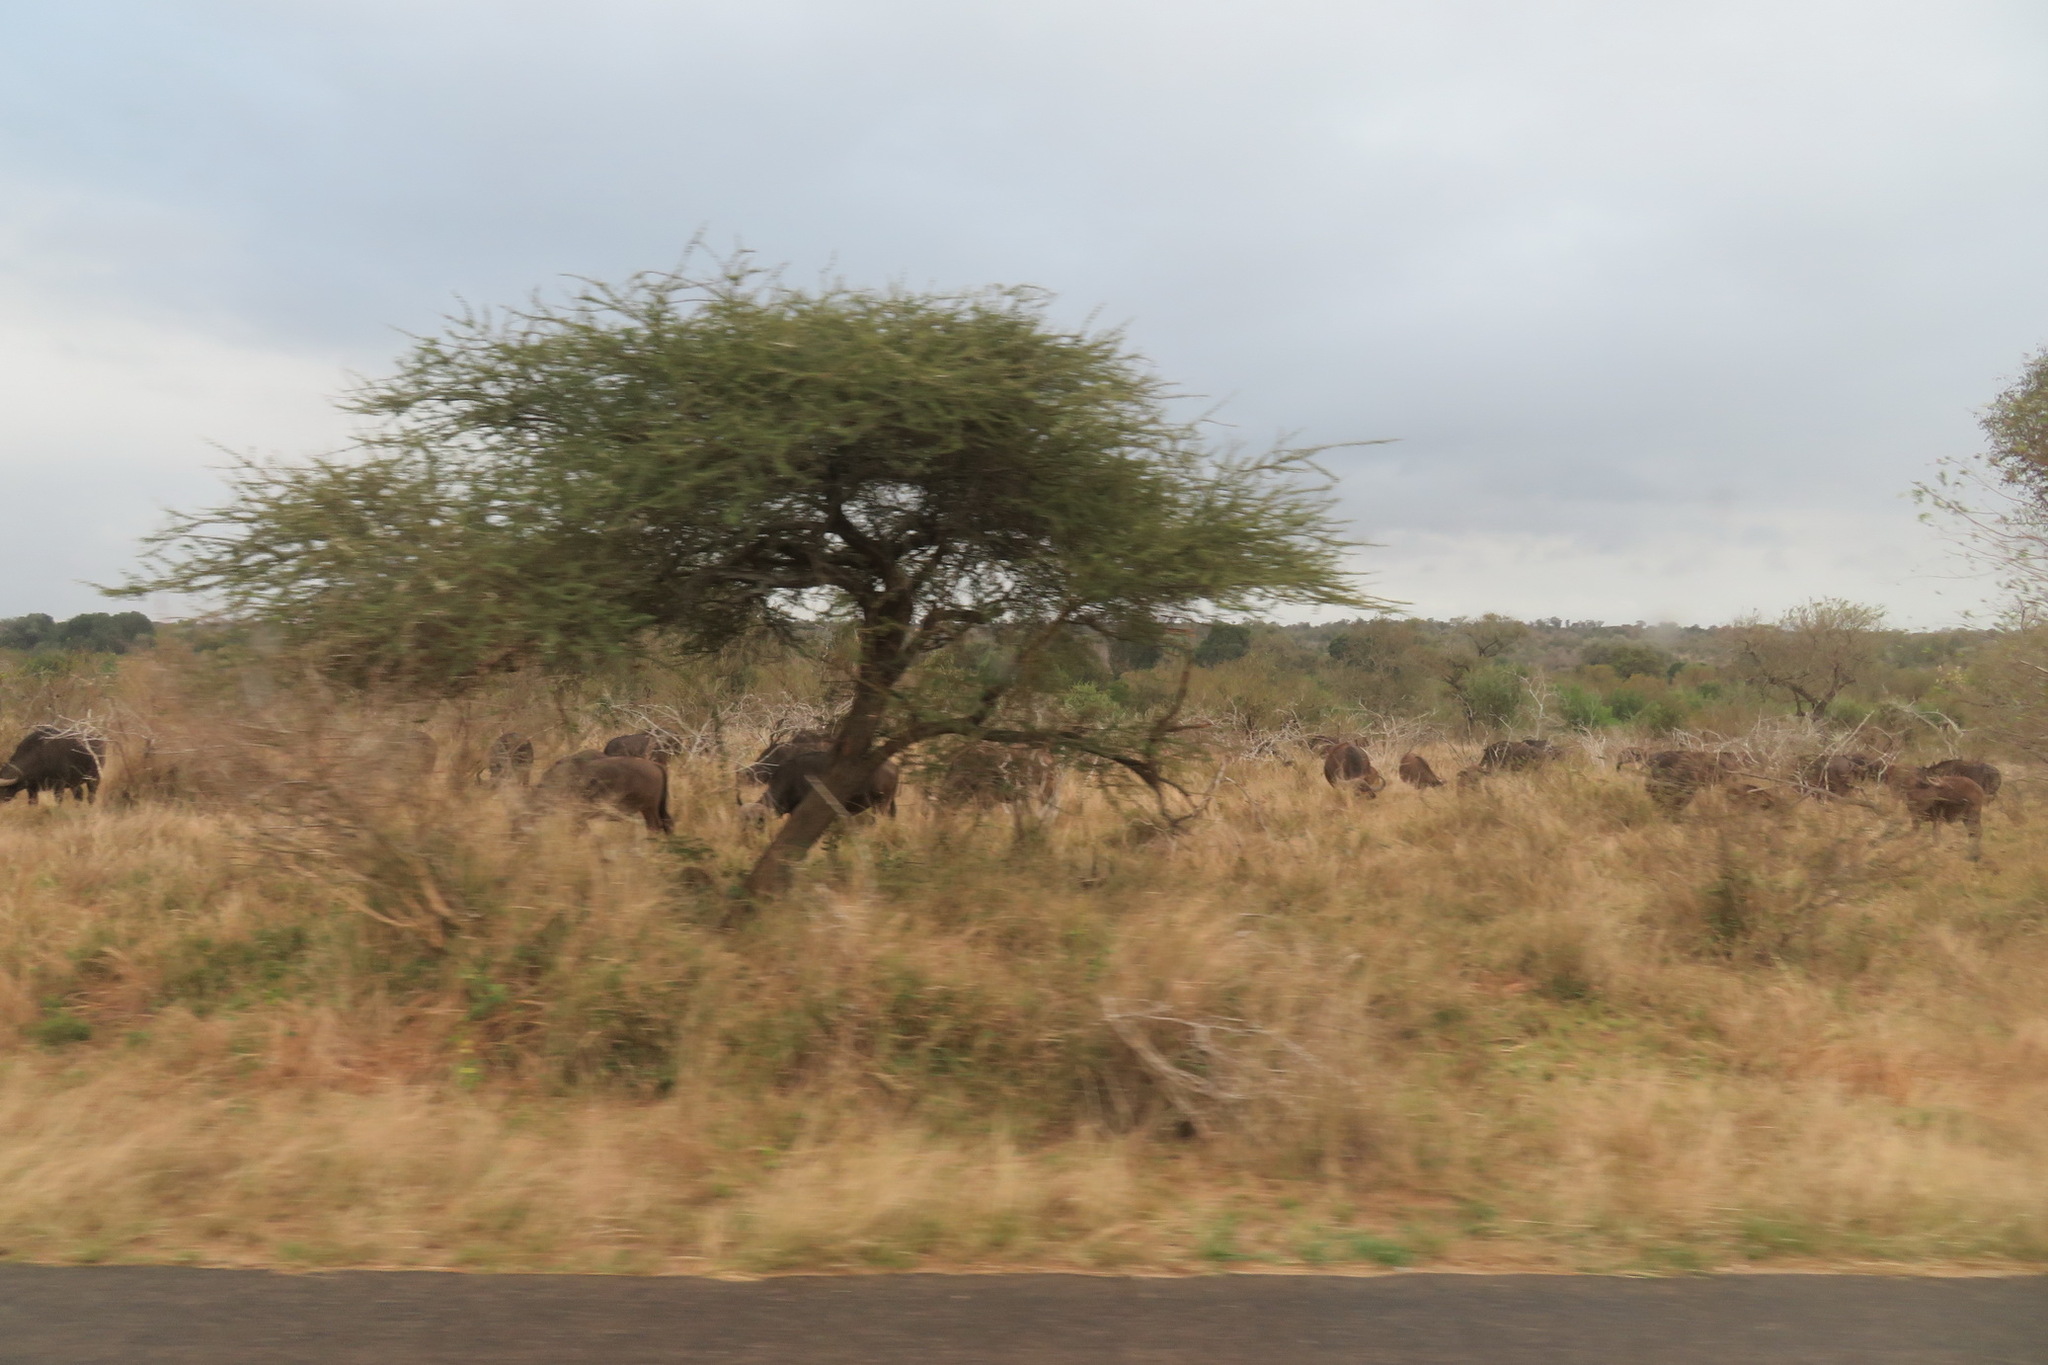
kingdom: Animalia
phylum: Chordata
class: Mammalia
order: Artiodactyla
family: Bovidae
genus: Syncerus
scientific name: Syncerus caffer
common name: African buffalo
